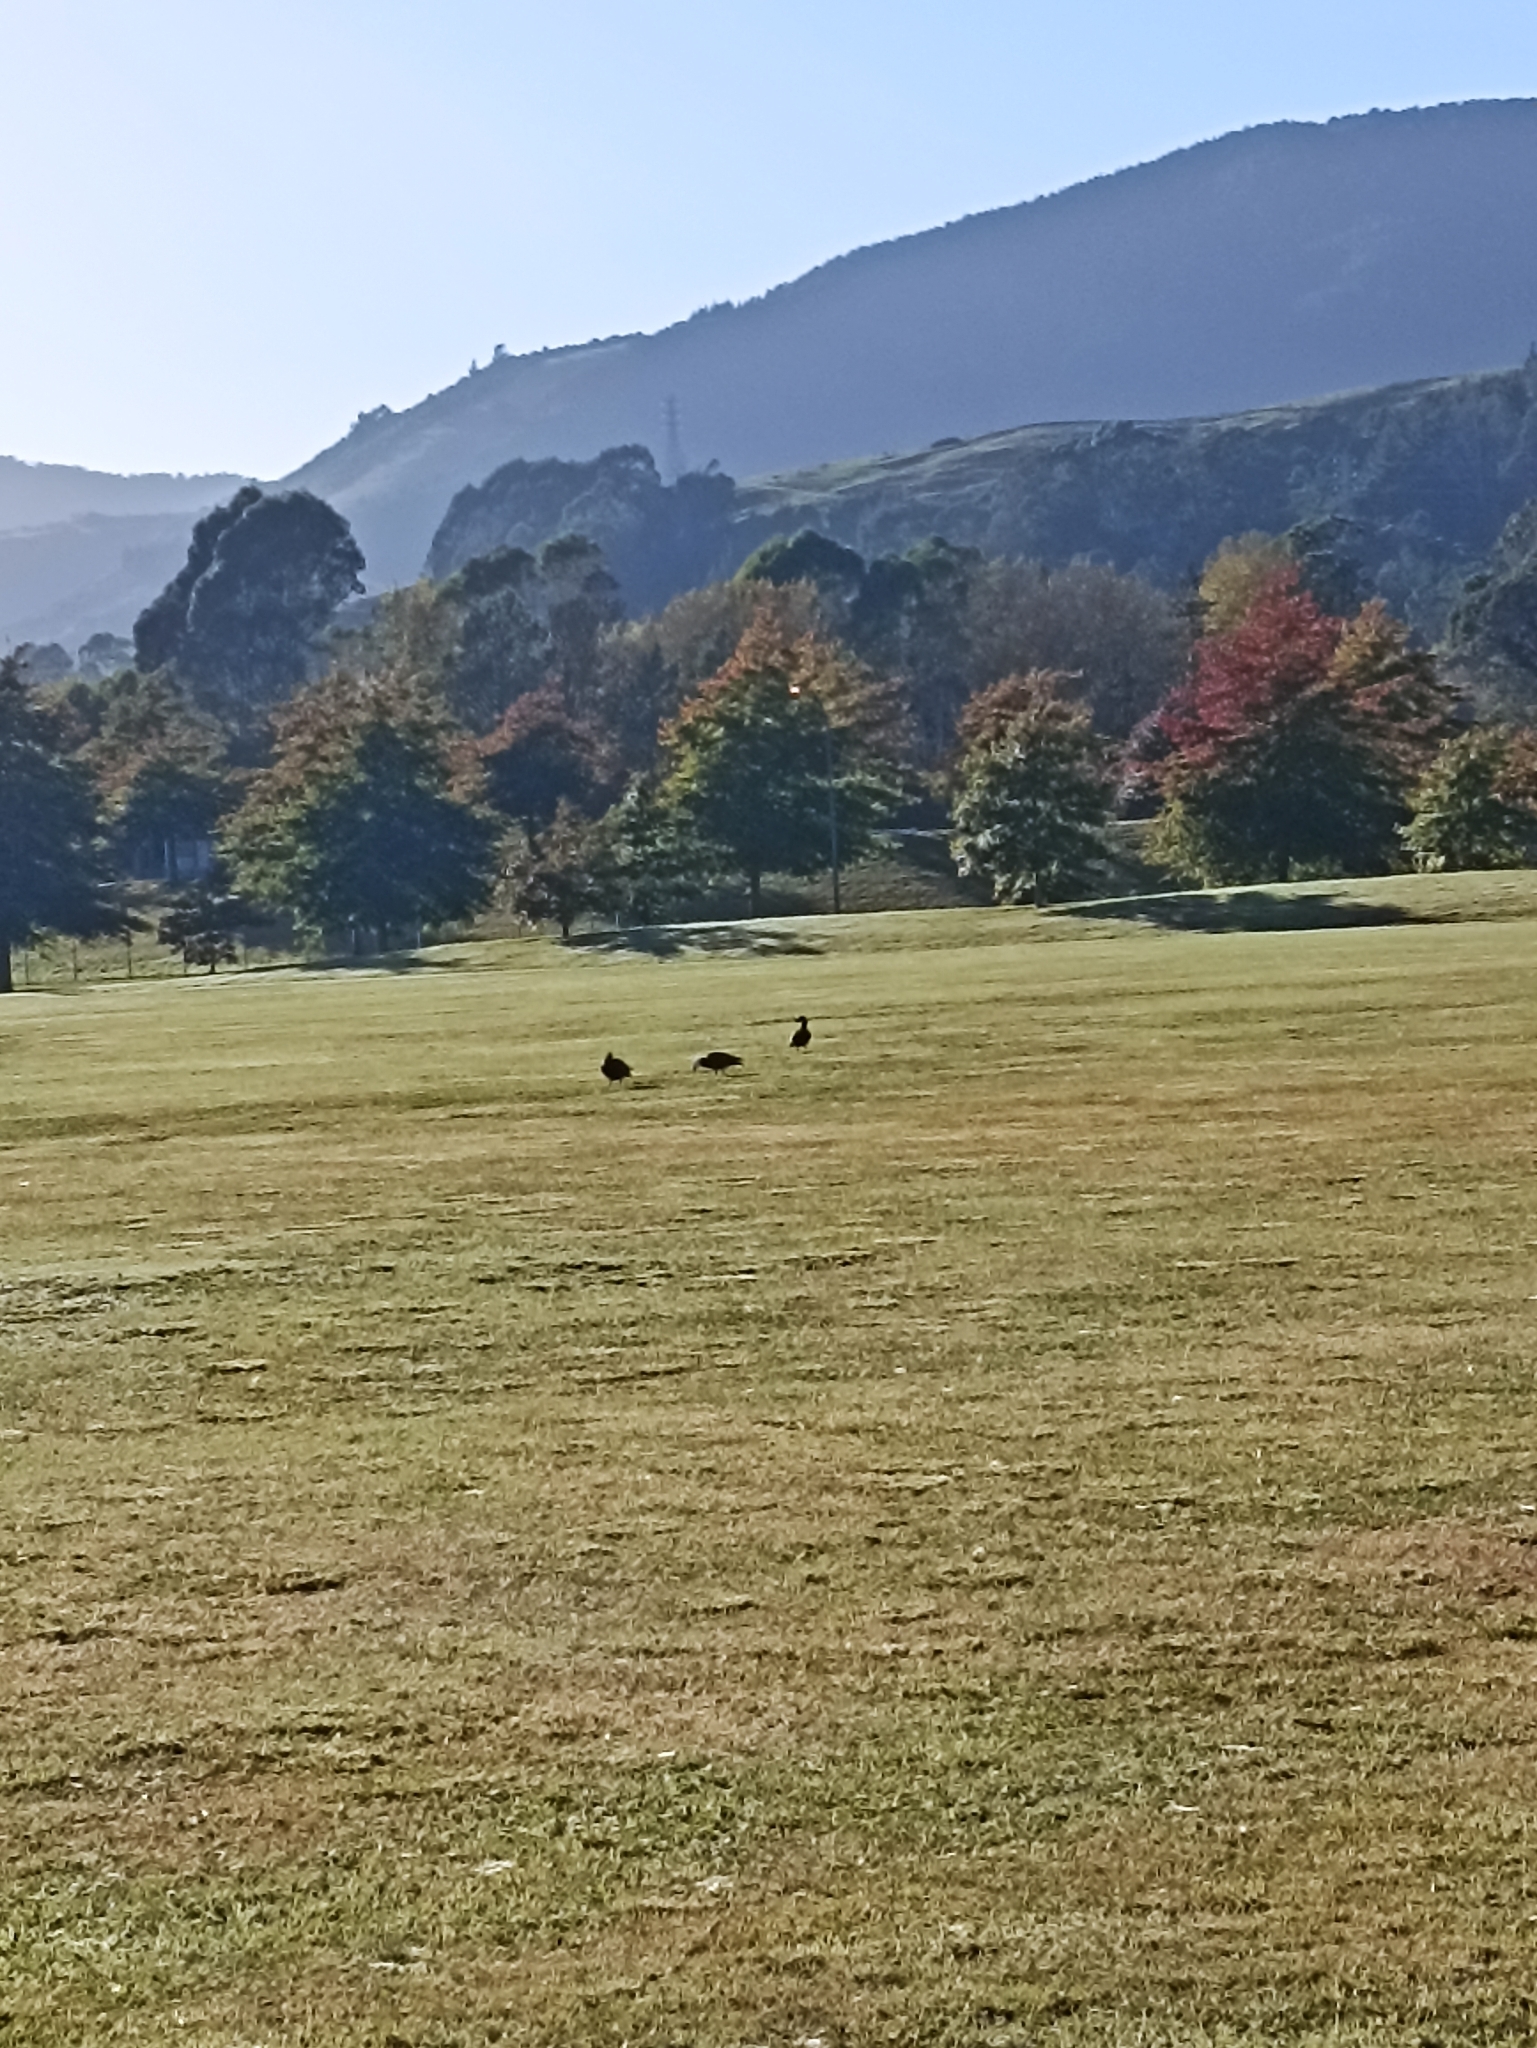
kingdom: Animalia
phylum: Chordata
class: Aves
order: Anseriformes
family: Anatidae
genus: Tadorna
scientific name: Tadorna variegata
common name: Paradise shelduck
